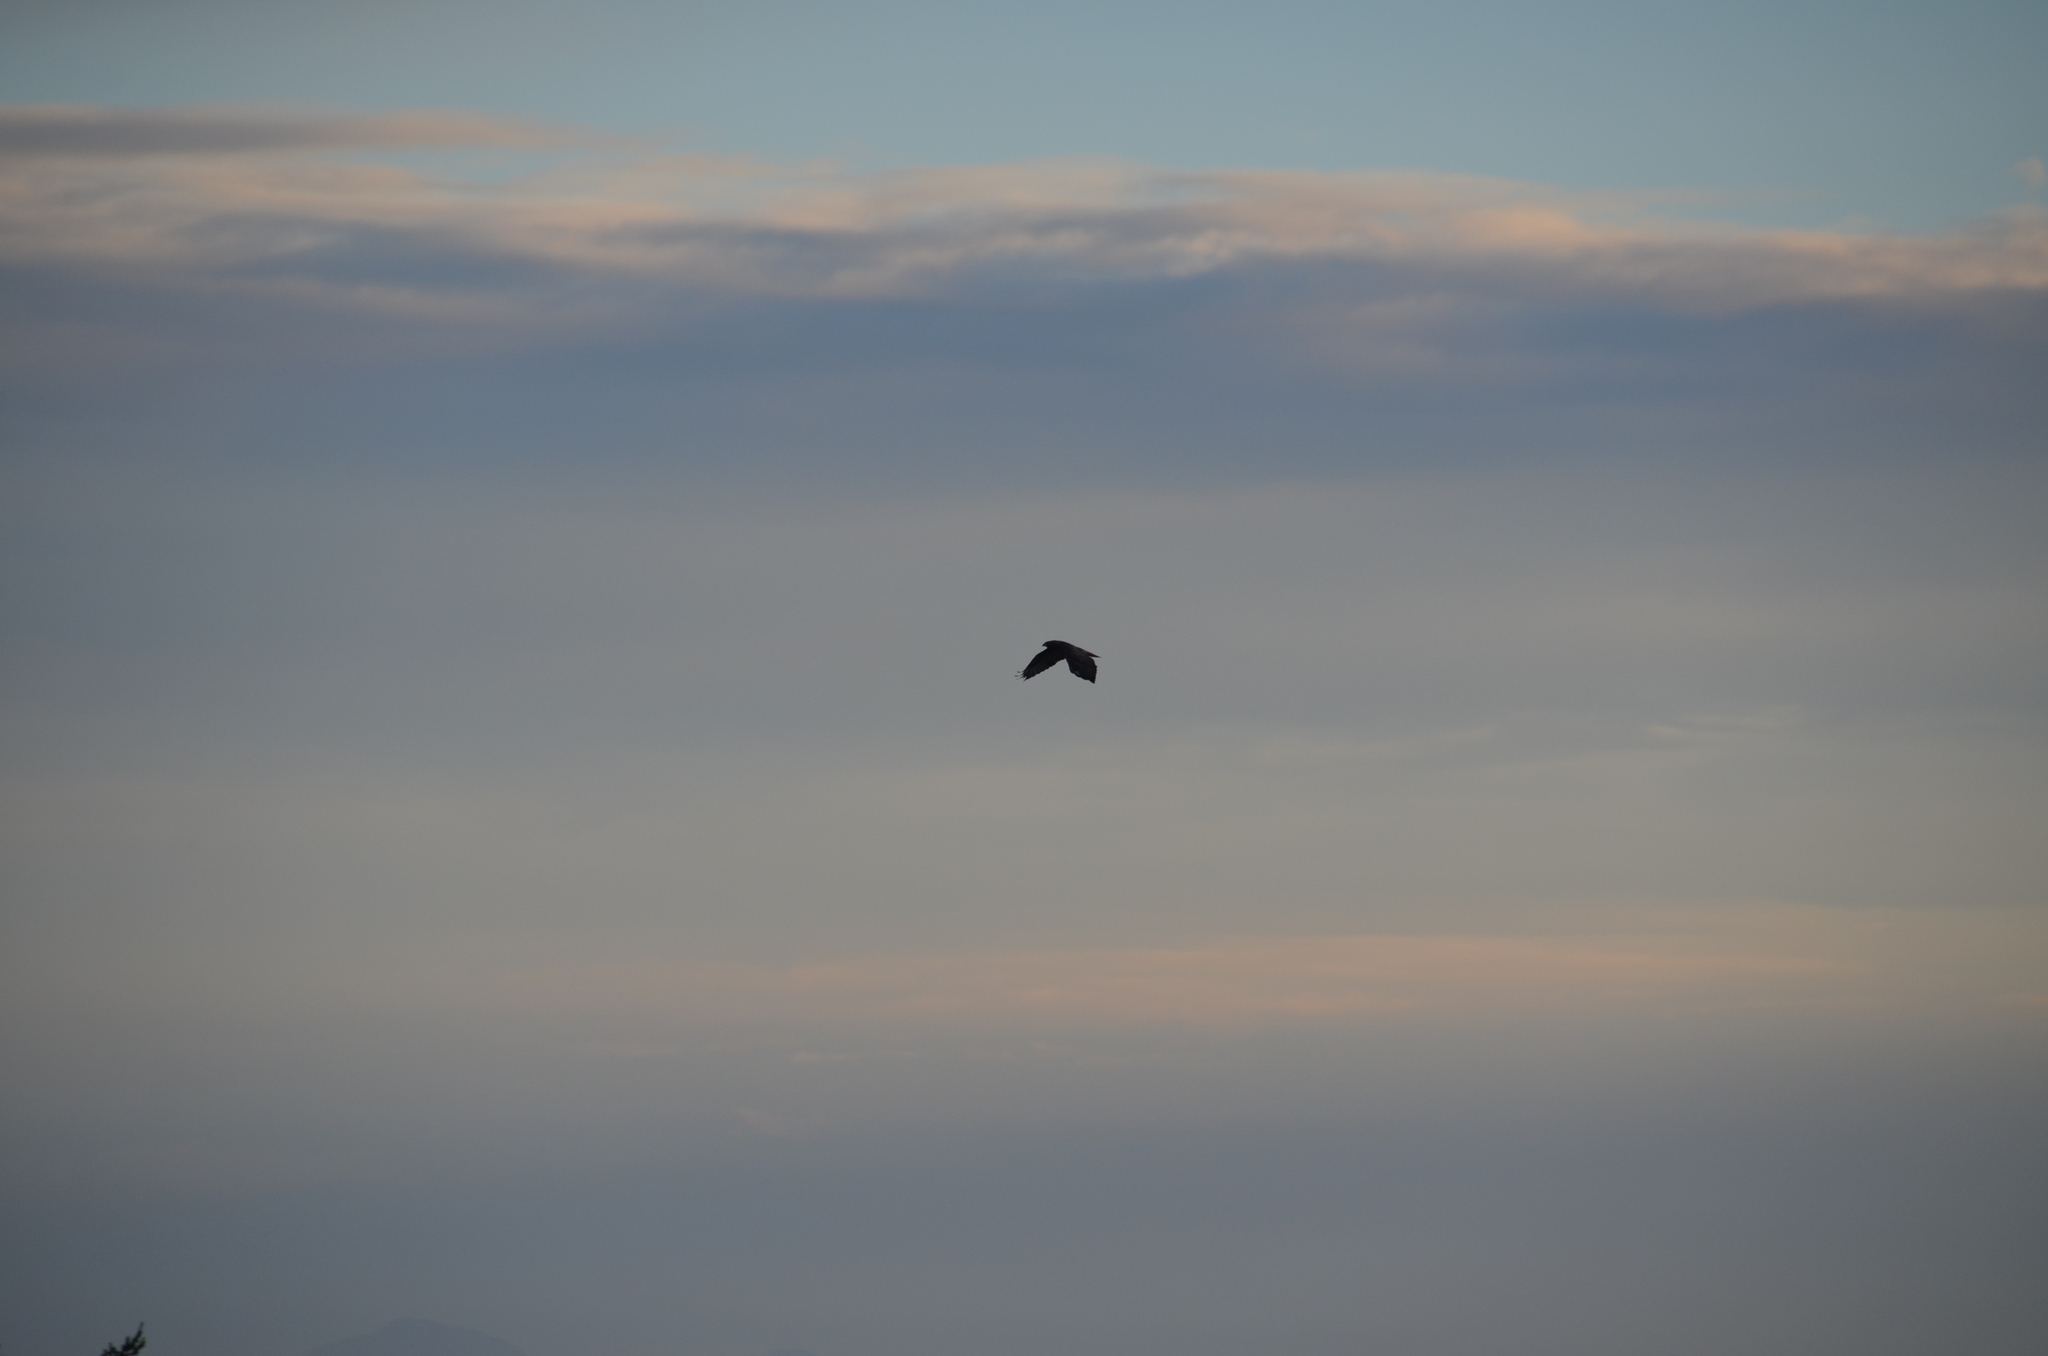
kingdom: Animalia
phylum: Chordata
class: Aves
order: Accipitriformes
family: Accipitridae
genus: Buteo
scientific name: Buteo jamaicensis
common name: Red-tailed hawk
